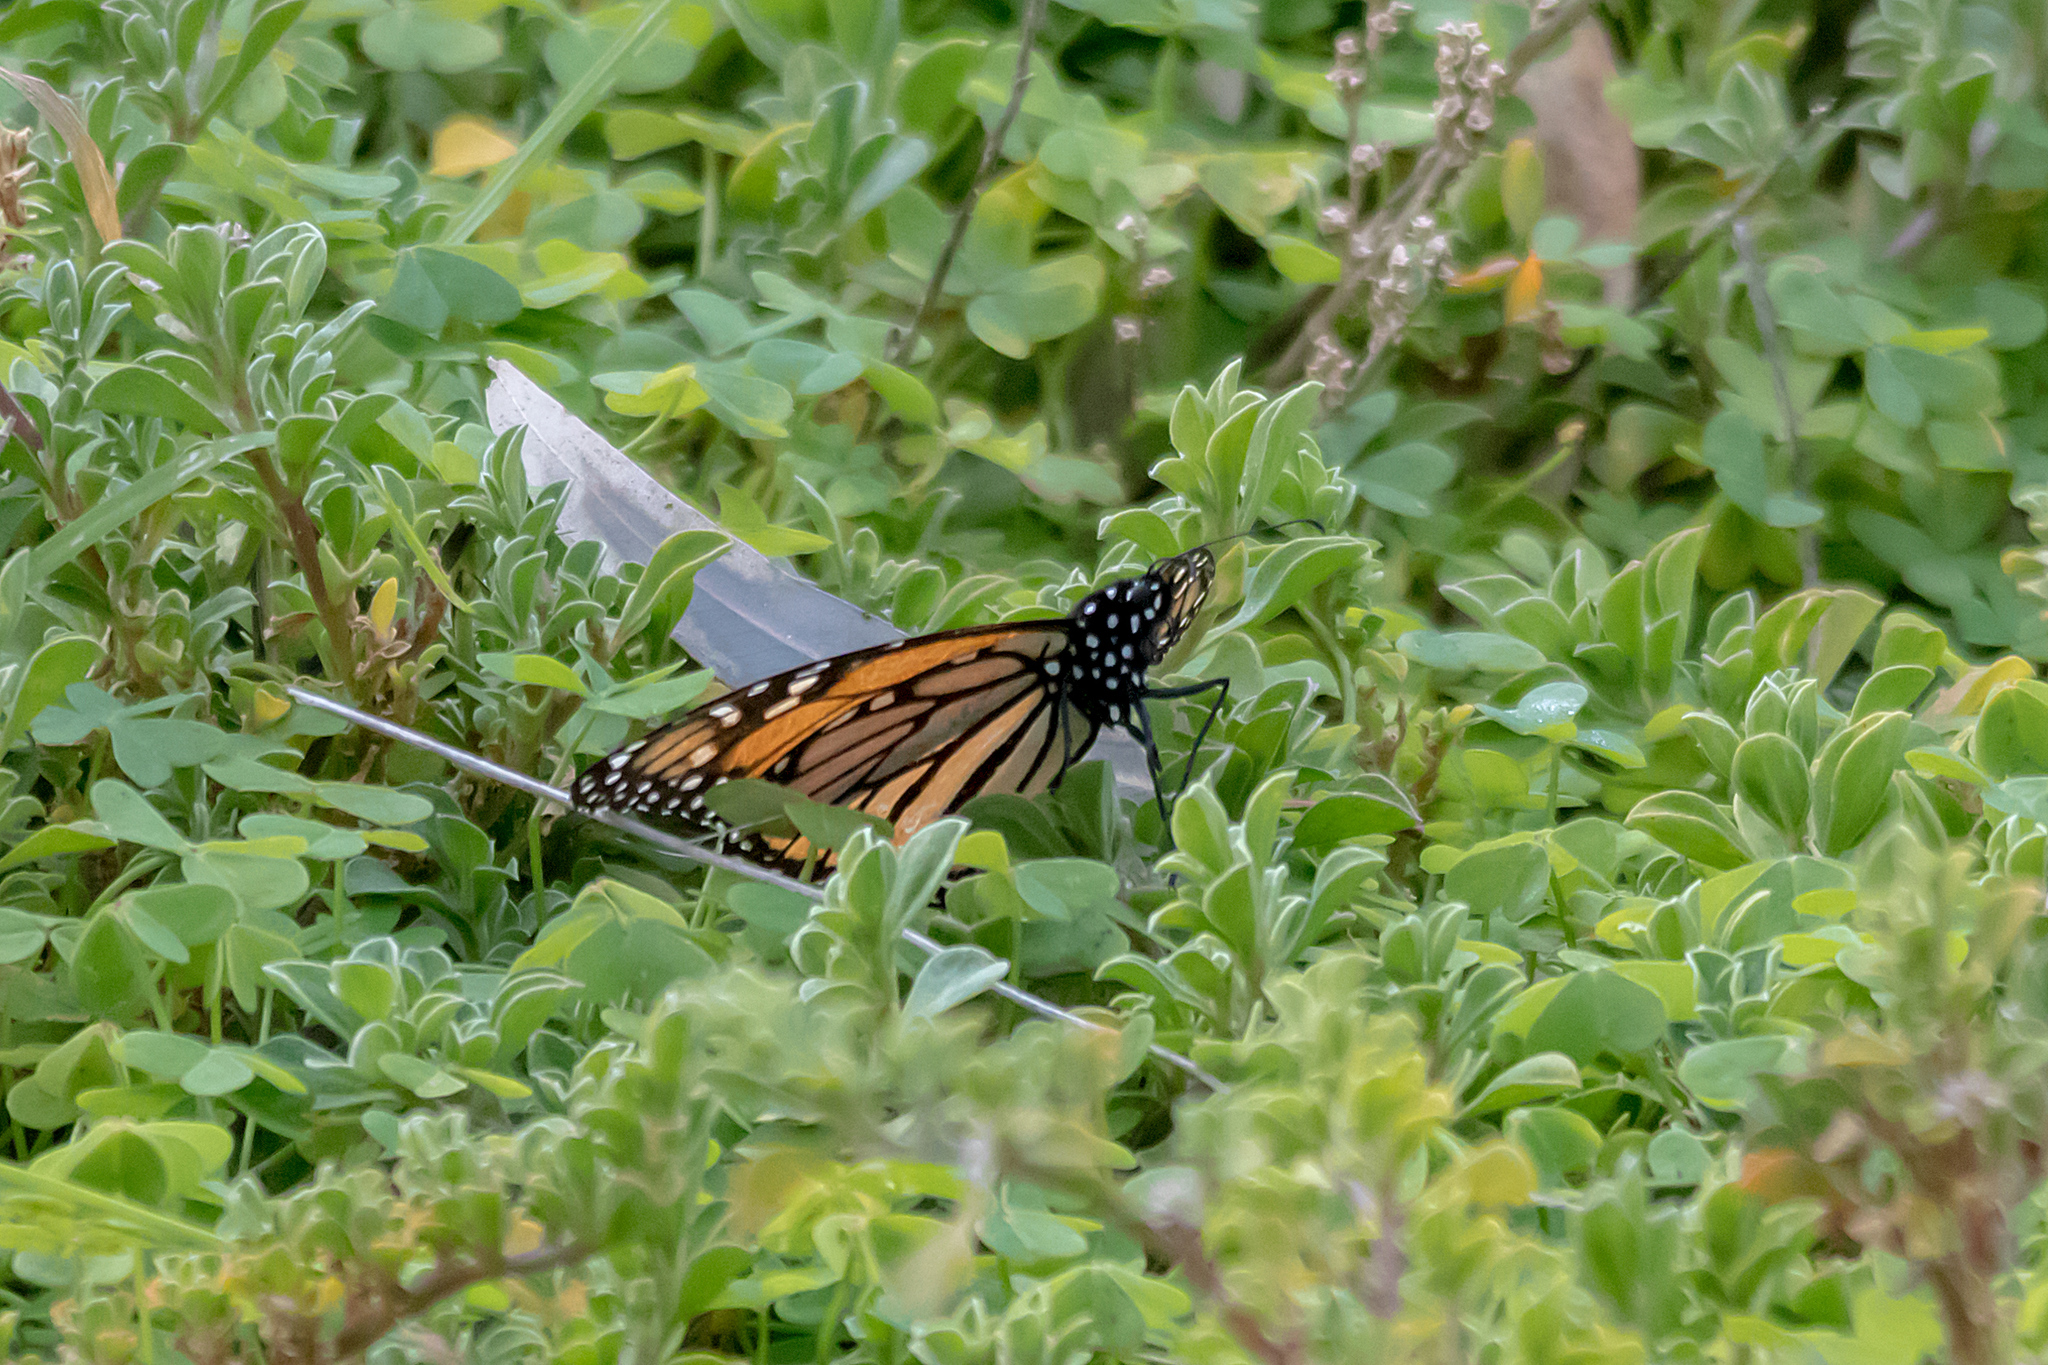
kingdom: Animalia
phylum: Arthropoda
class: Insecta
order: Lepidoptera
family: Nymphalidae
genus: Danaus
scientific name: Danaus plexippus
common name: Monarch
